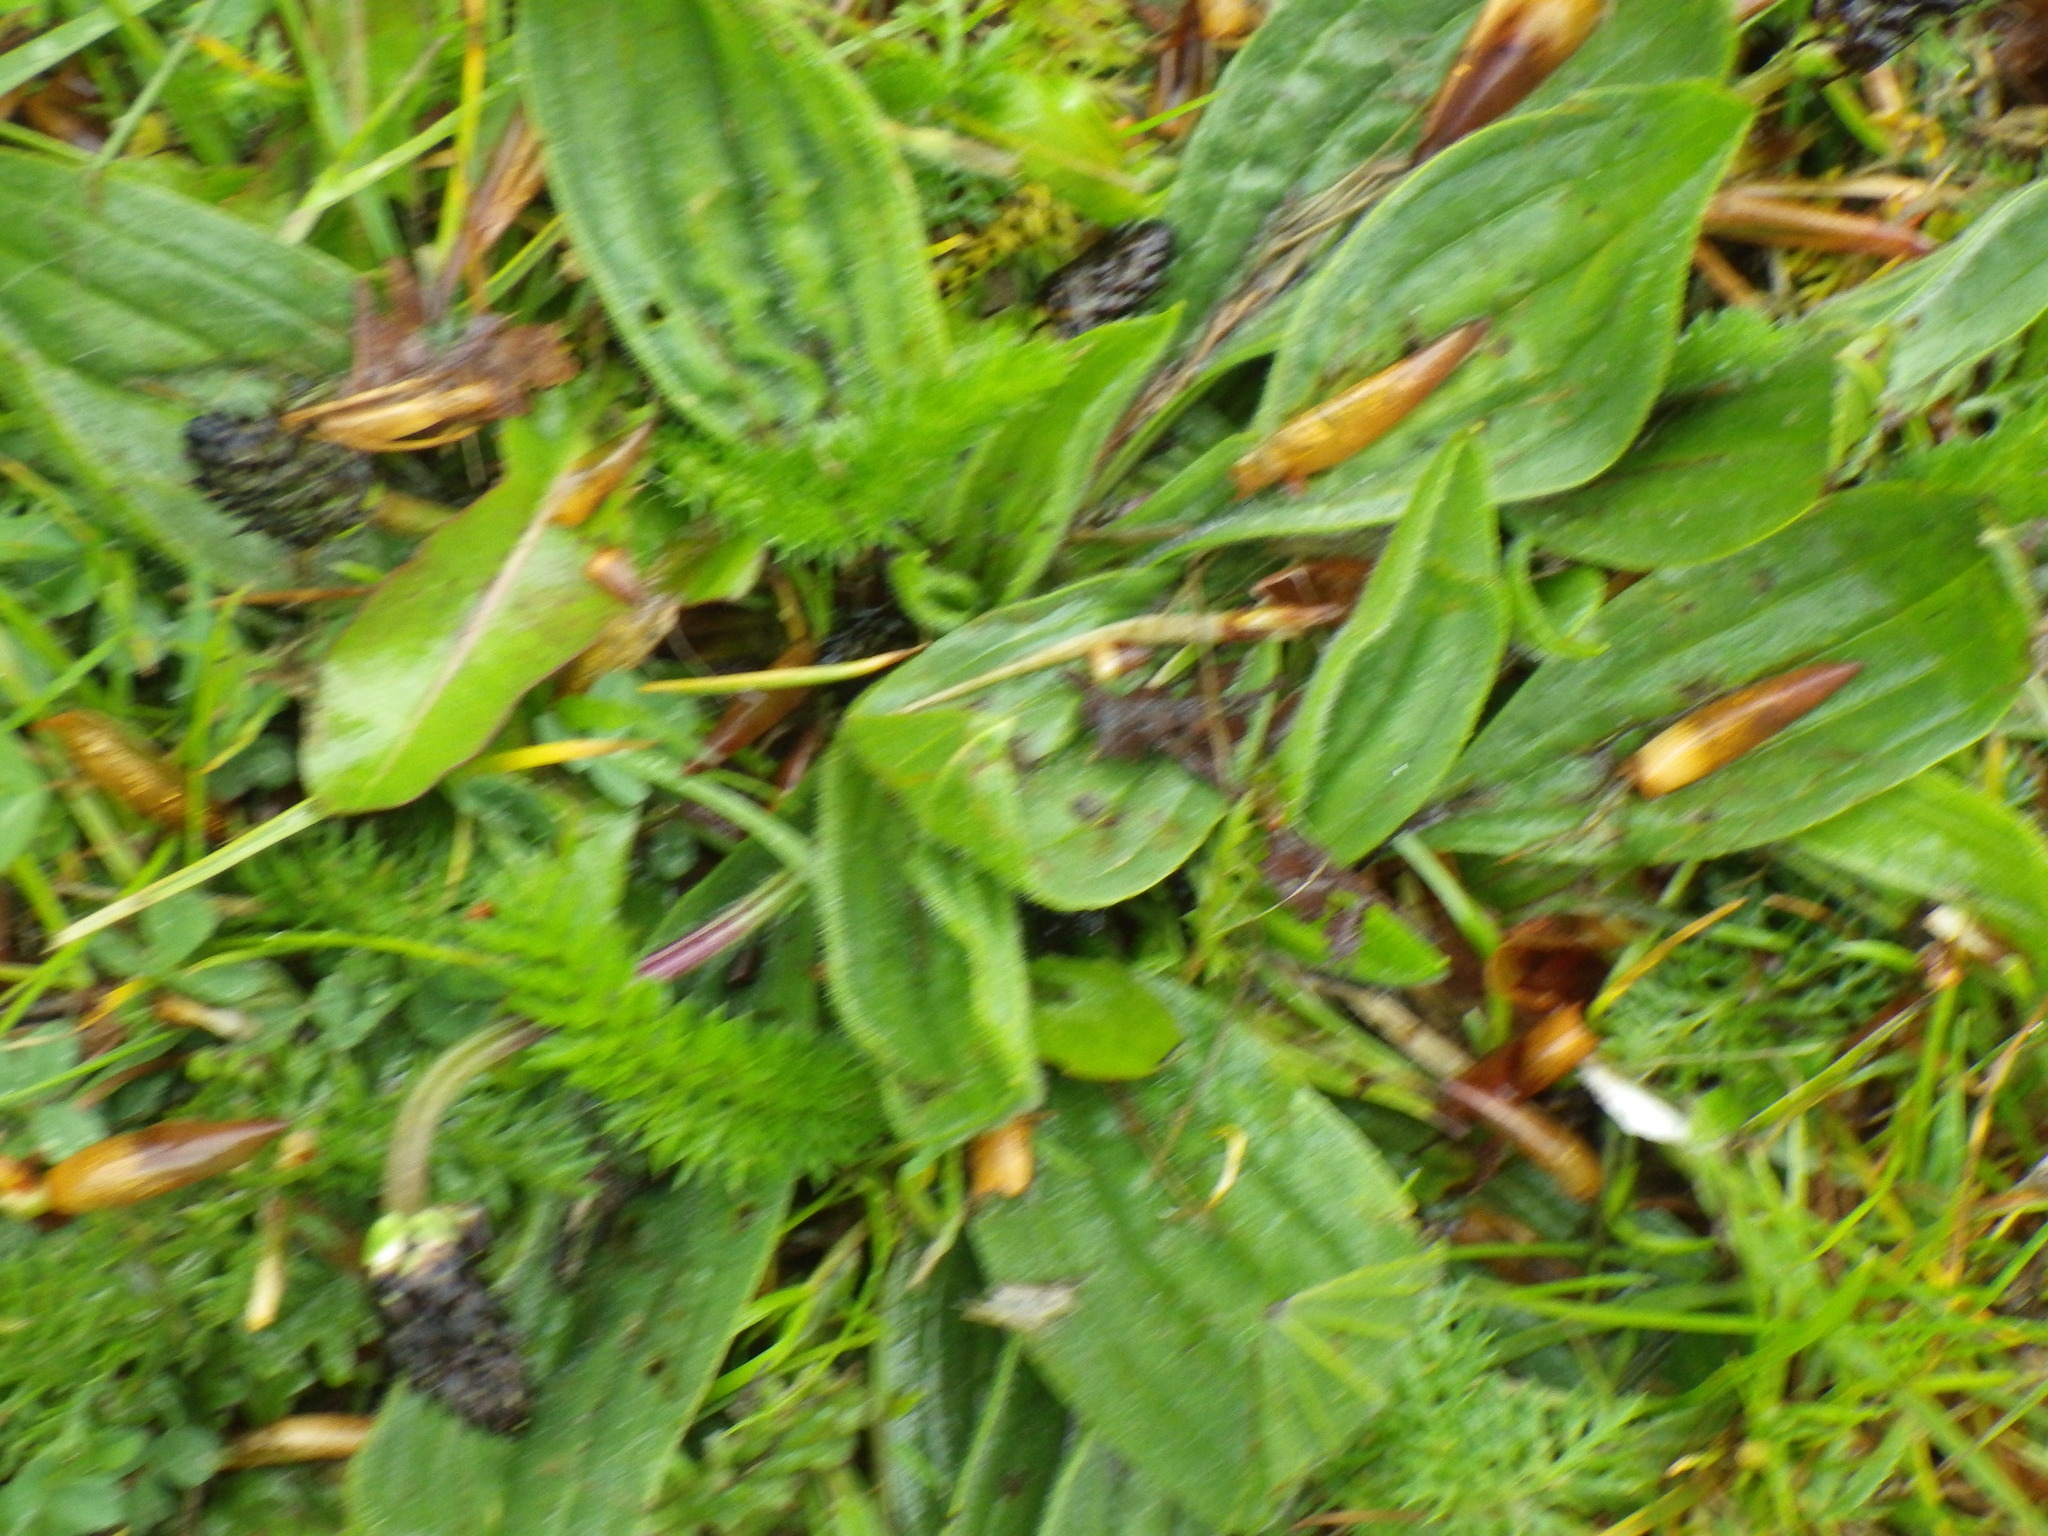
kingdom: Plantae
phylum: Tracheophyta
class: Magnoliopsida
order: Lamiales
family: Plantaginaceae
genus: Plantago
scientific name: Plantago lanceolata
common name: Ribwort plantain
